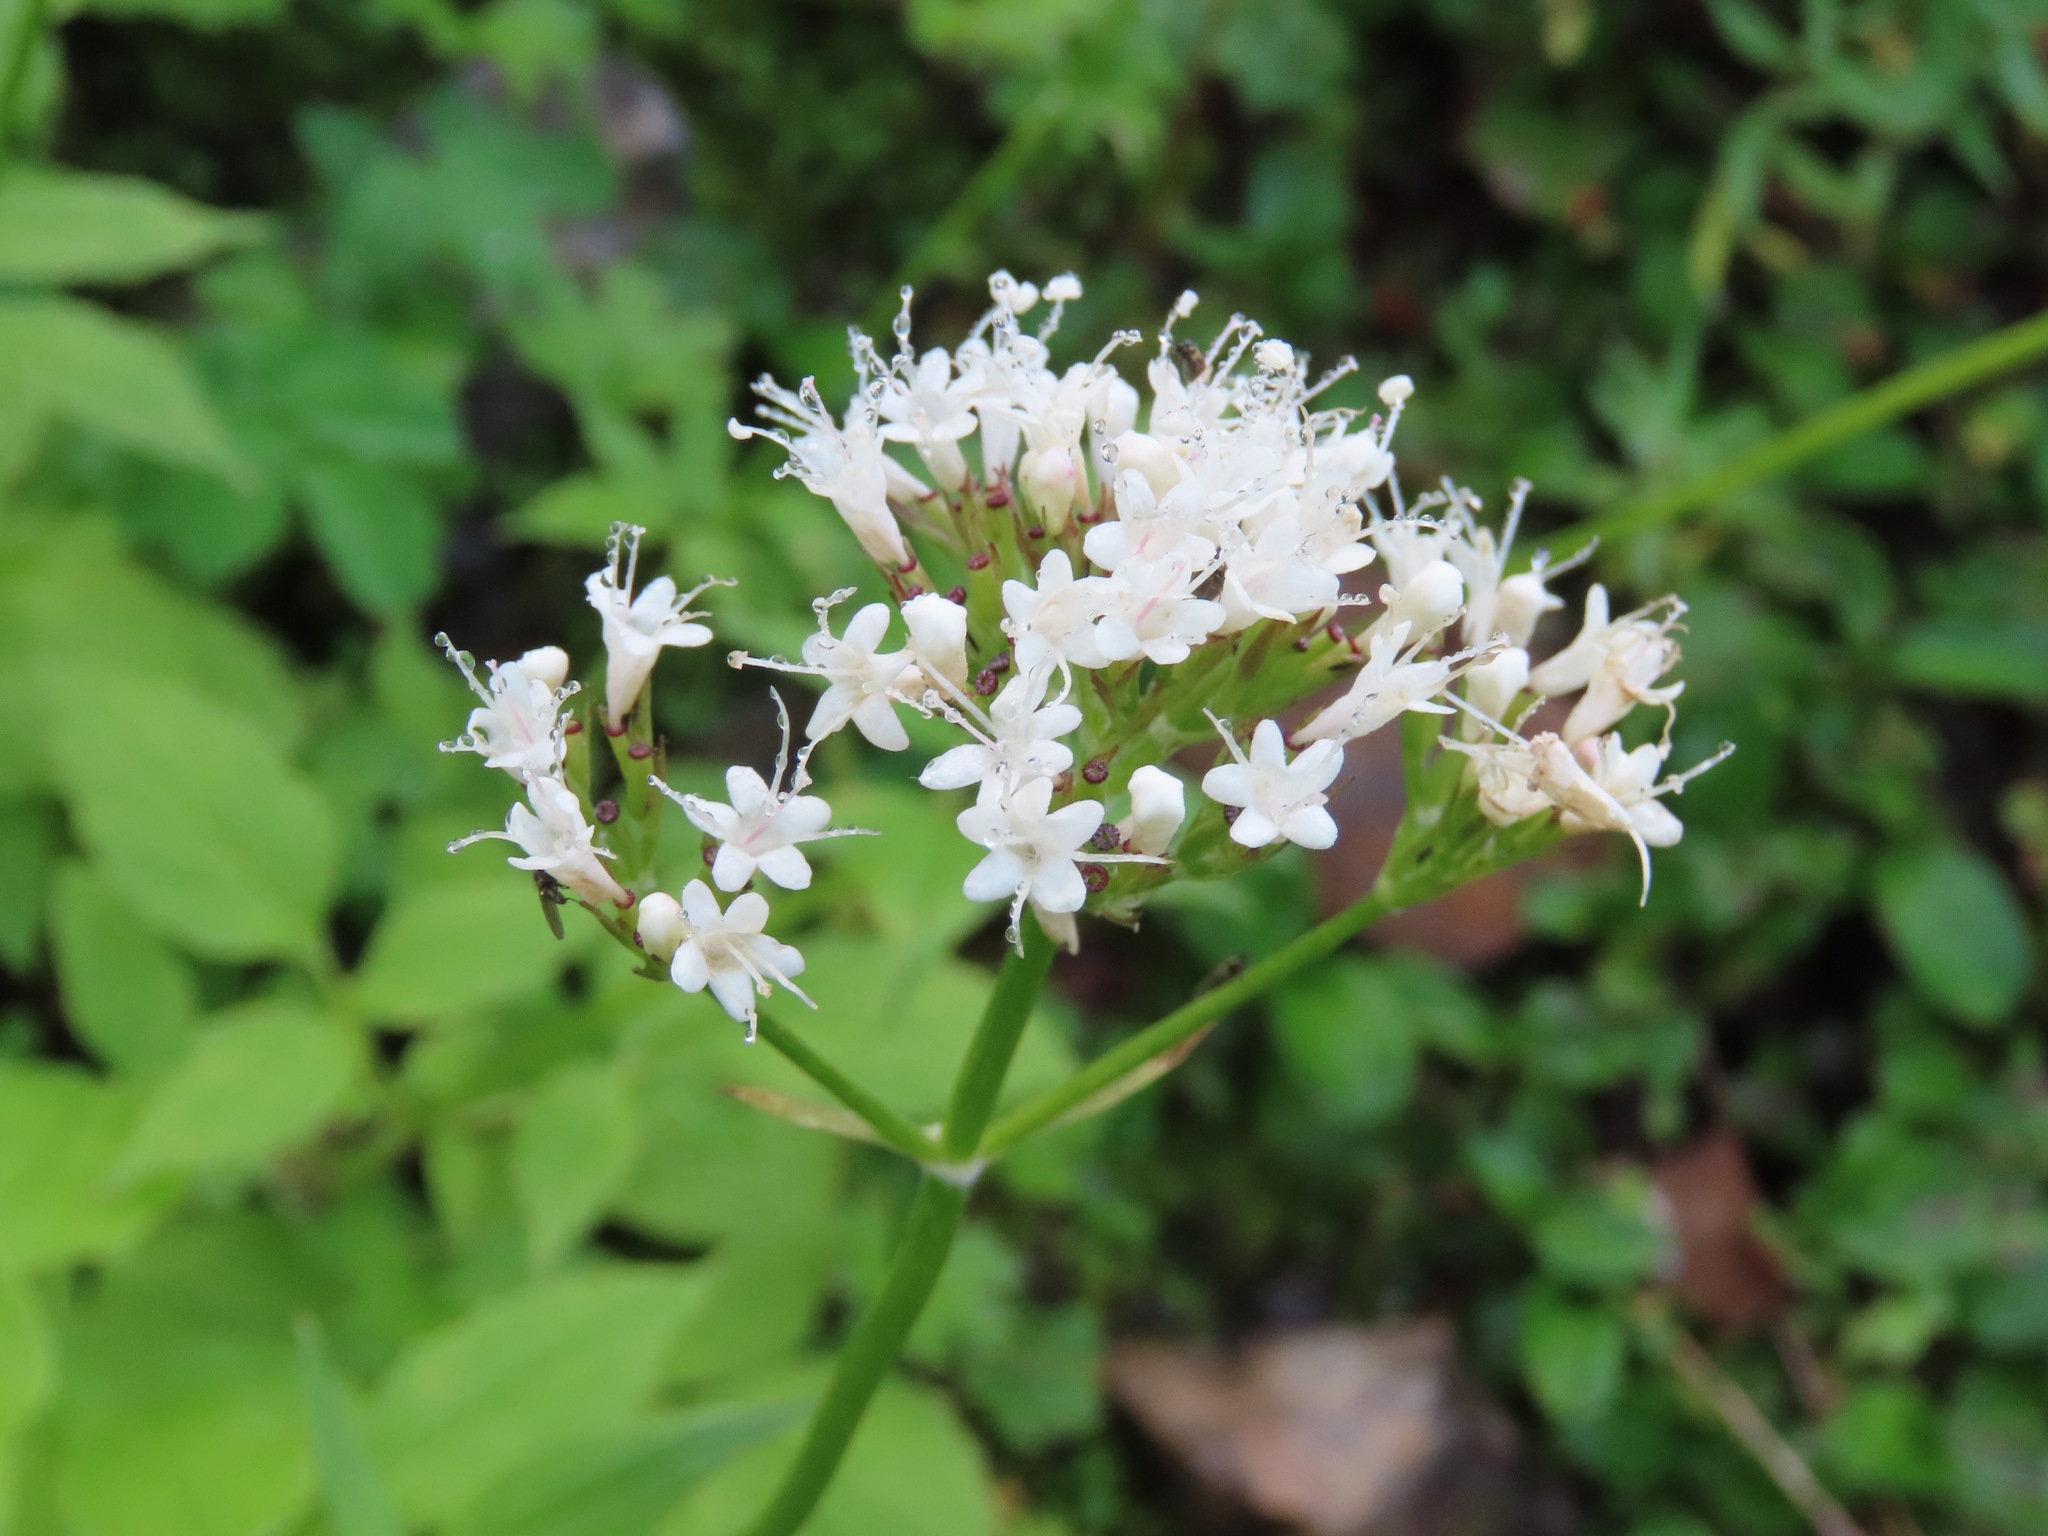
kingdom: Plantae
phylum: Tracheophyta
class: Magnoliopsida
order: Dipsacales
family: Caprifoliaceae
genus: Valeriana
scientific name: Valeriana sitchensis
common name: Pacific valerian
